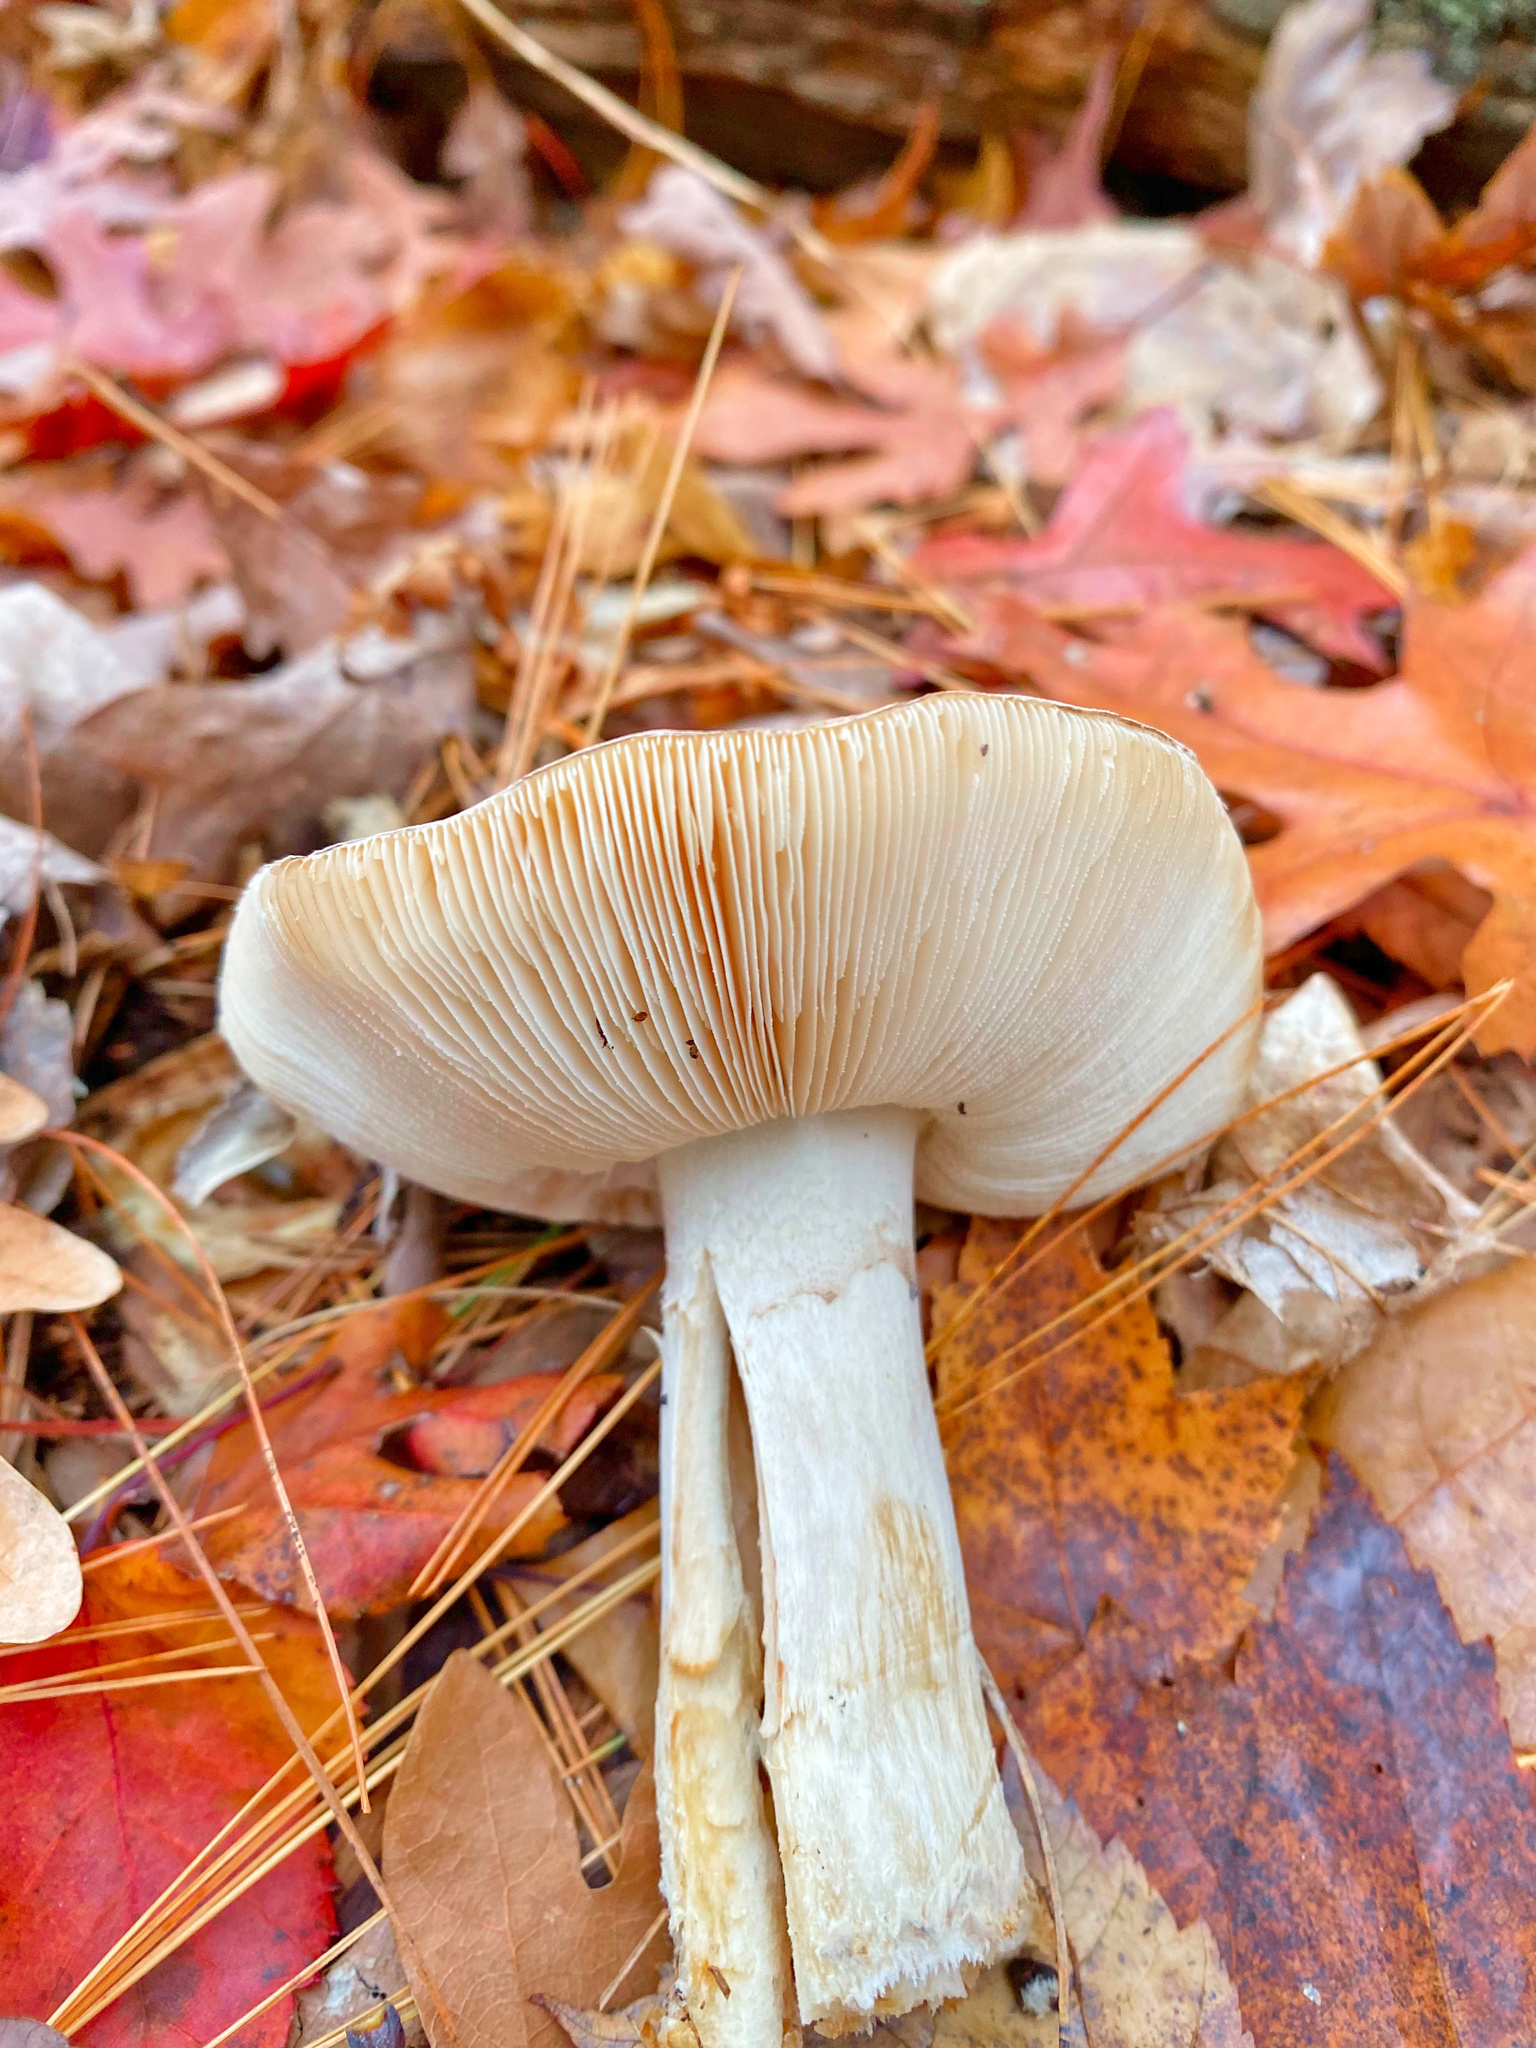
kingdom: Fungi
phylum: Basidiomycota
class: Agaricomycetes
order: Agaricales
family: Amanitaceae
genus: Amanita
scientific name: Amanita citrina
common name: False death-cap
